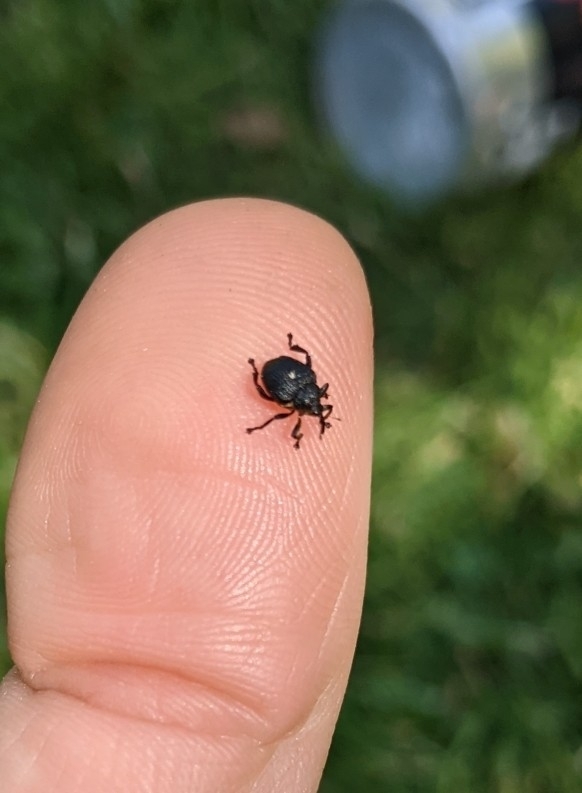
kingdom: Animalia
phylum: Arthropoda
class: Insecta
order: Coleoptera
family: Curculionidae
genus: Mononychus
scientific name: Mononychus punctumalbum
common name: Iris weevil
